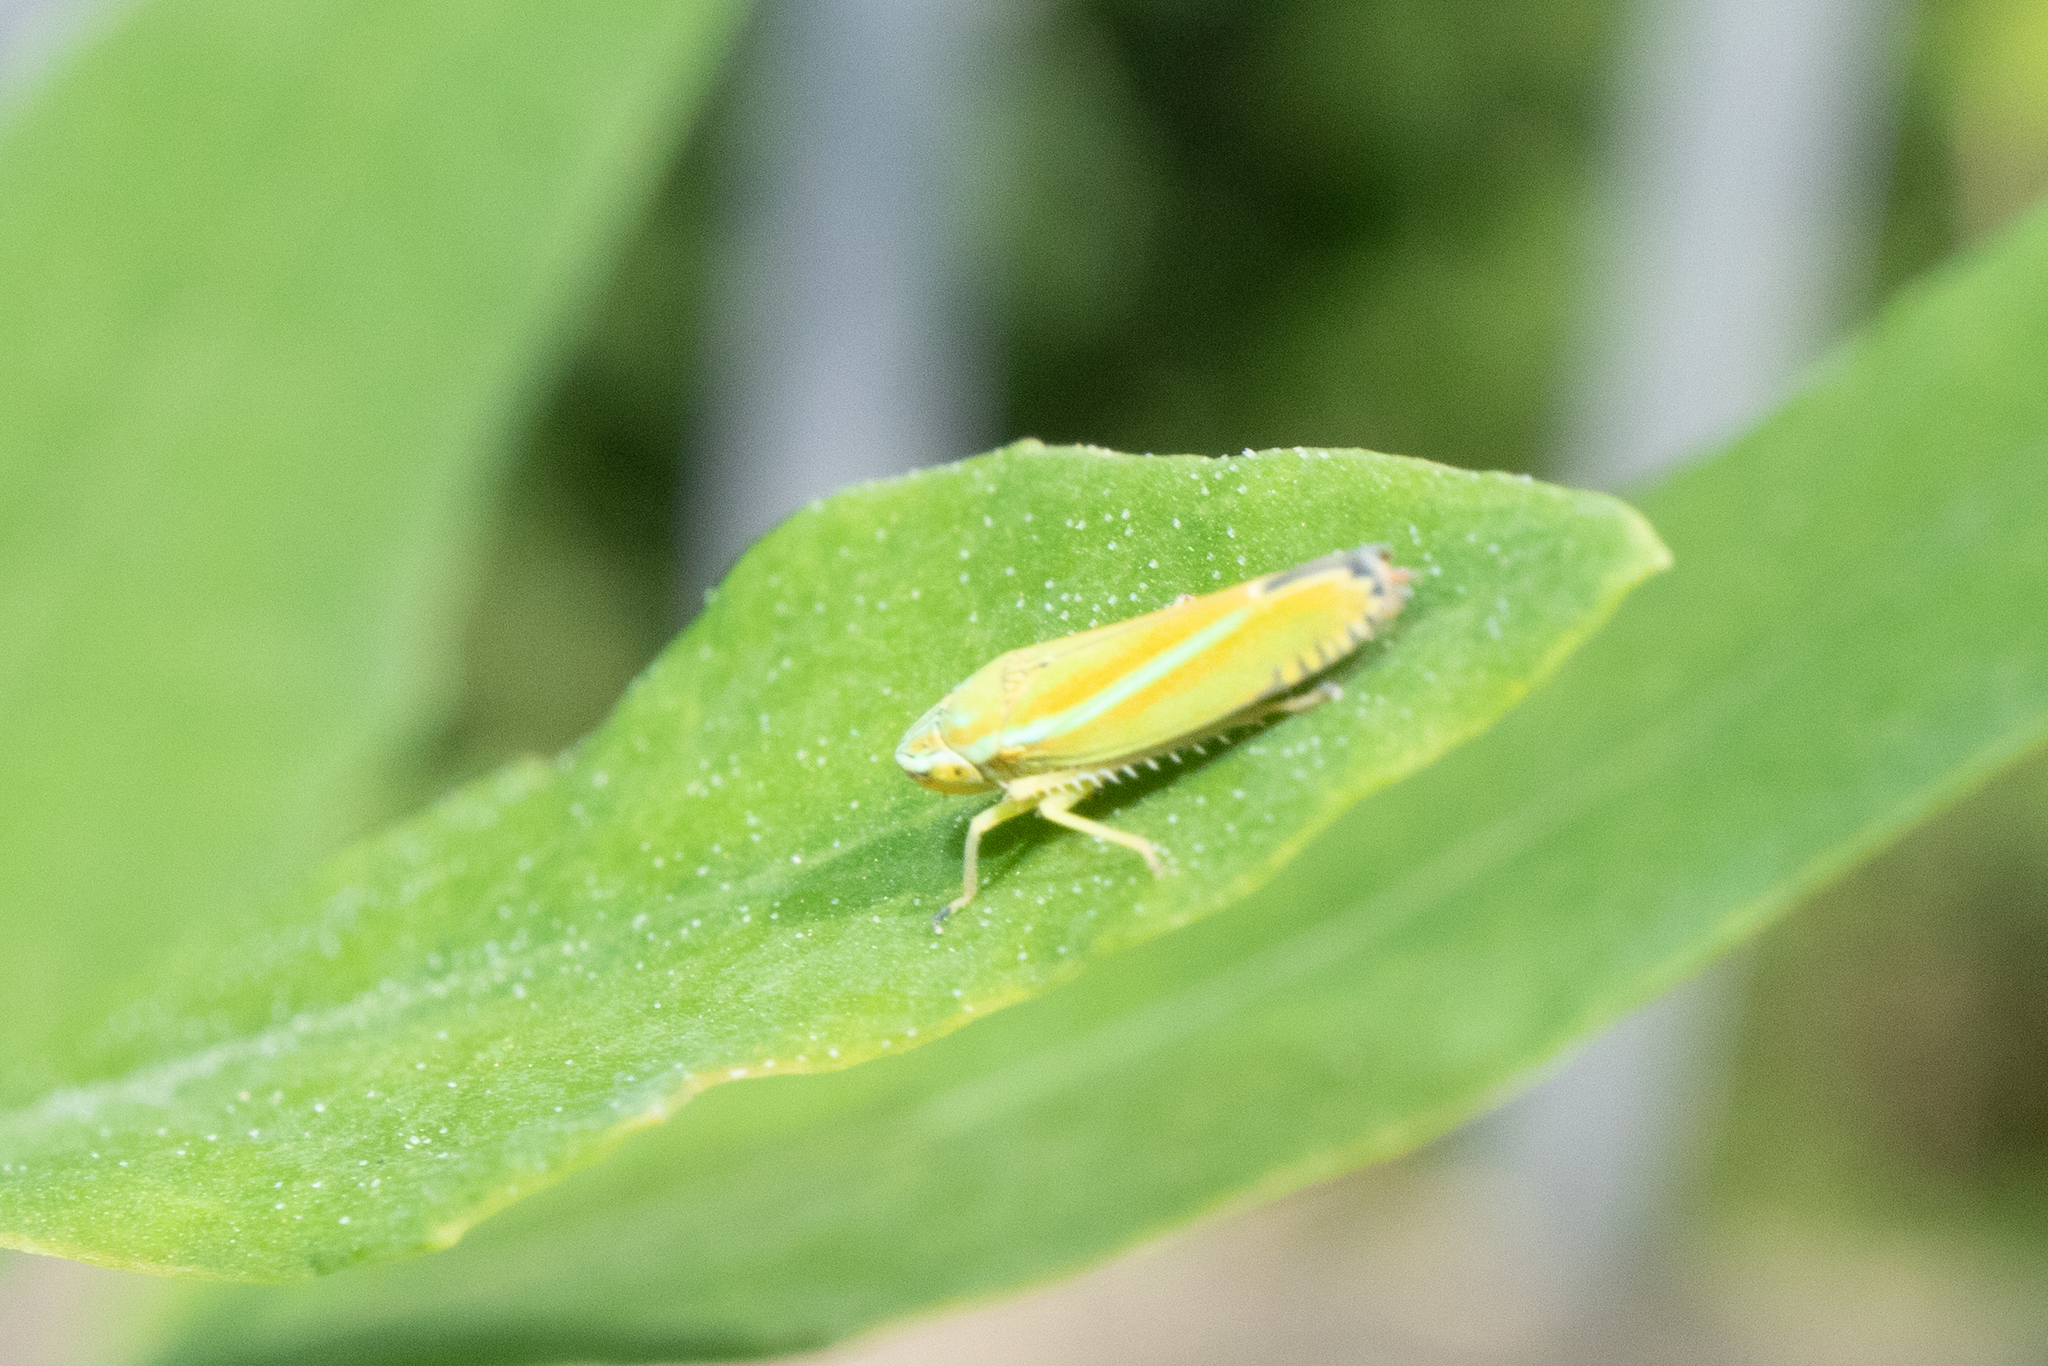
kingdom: Animalia
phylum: Arthropoda
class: Insecta
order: Hemiptera
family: Cicadellidae
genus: Graphocephala
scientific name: Graphocephala versuta
